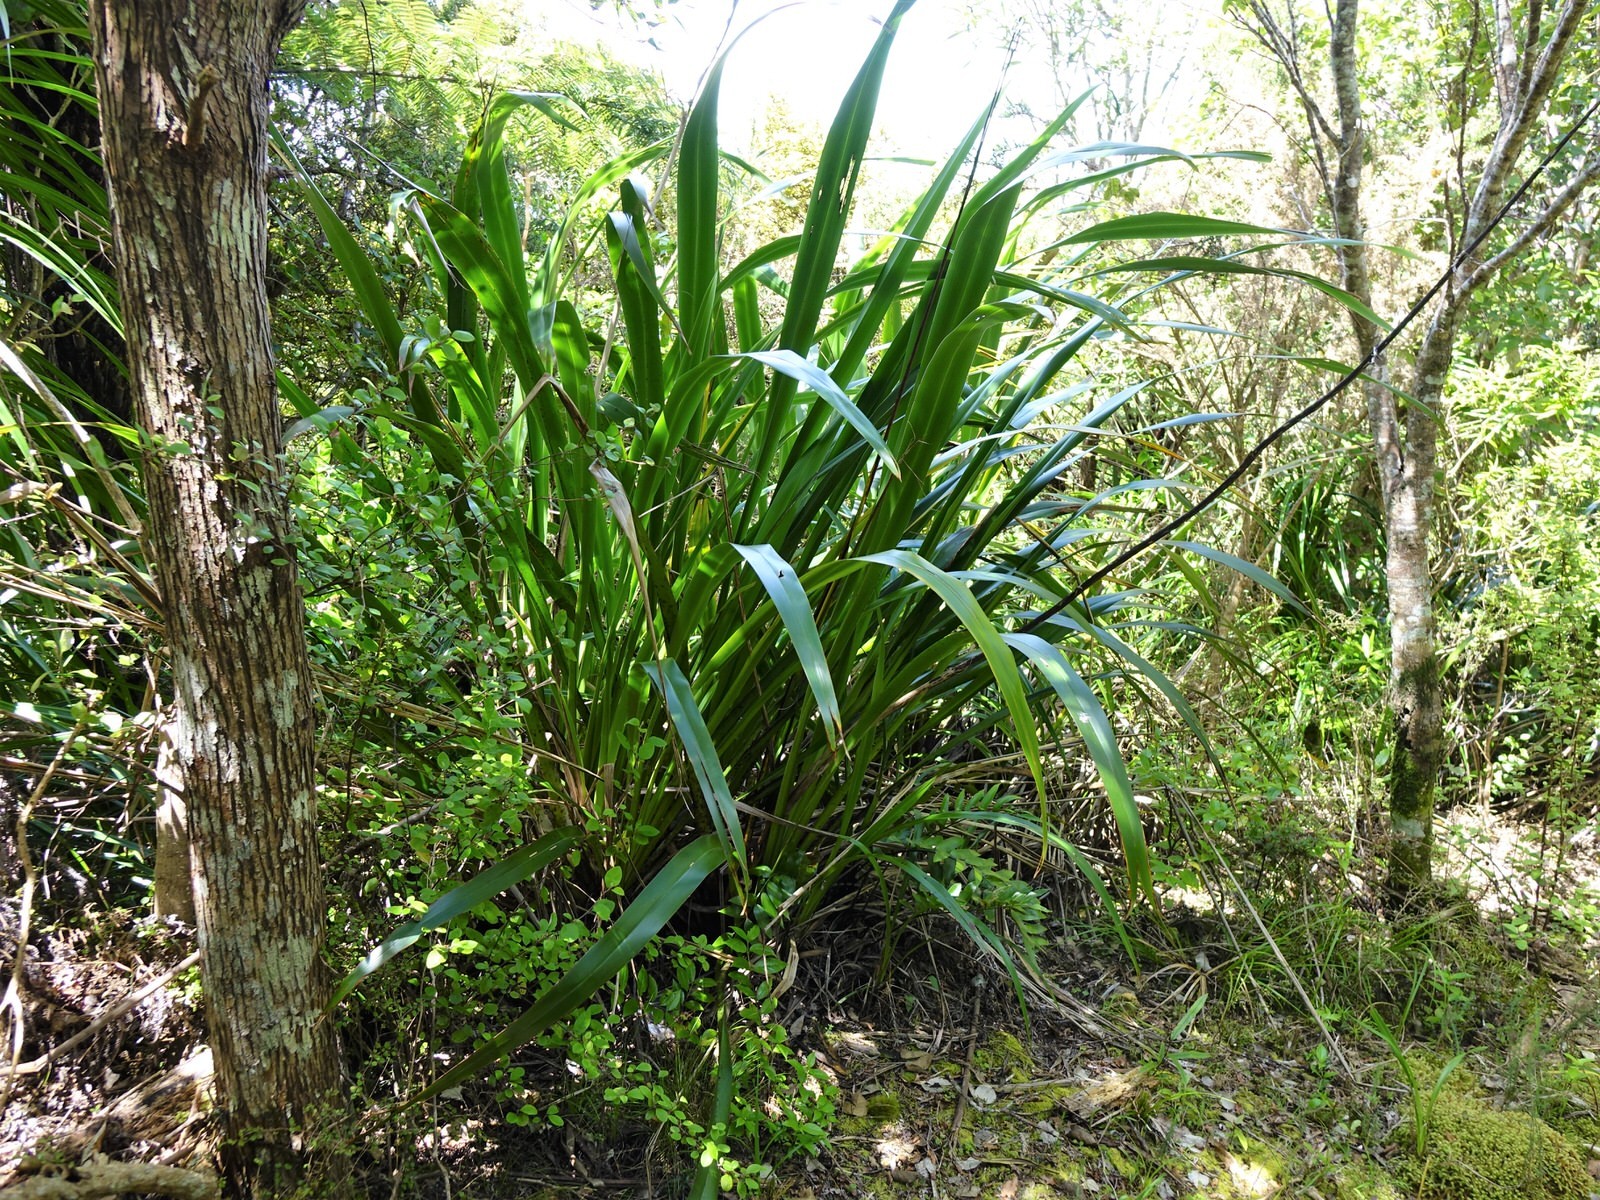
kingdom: Plantae
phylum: Tracheophyta
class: Liliopsida
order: Asparagales
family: Asphodelaceae
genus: Phormium
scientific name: Phormium tenax
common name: New zealand flax
